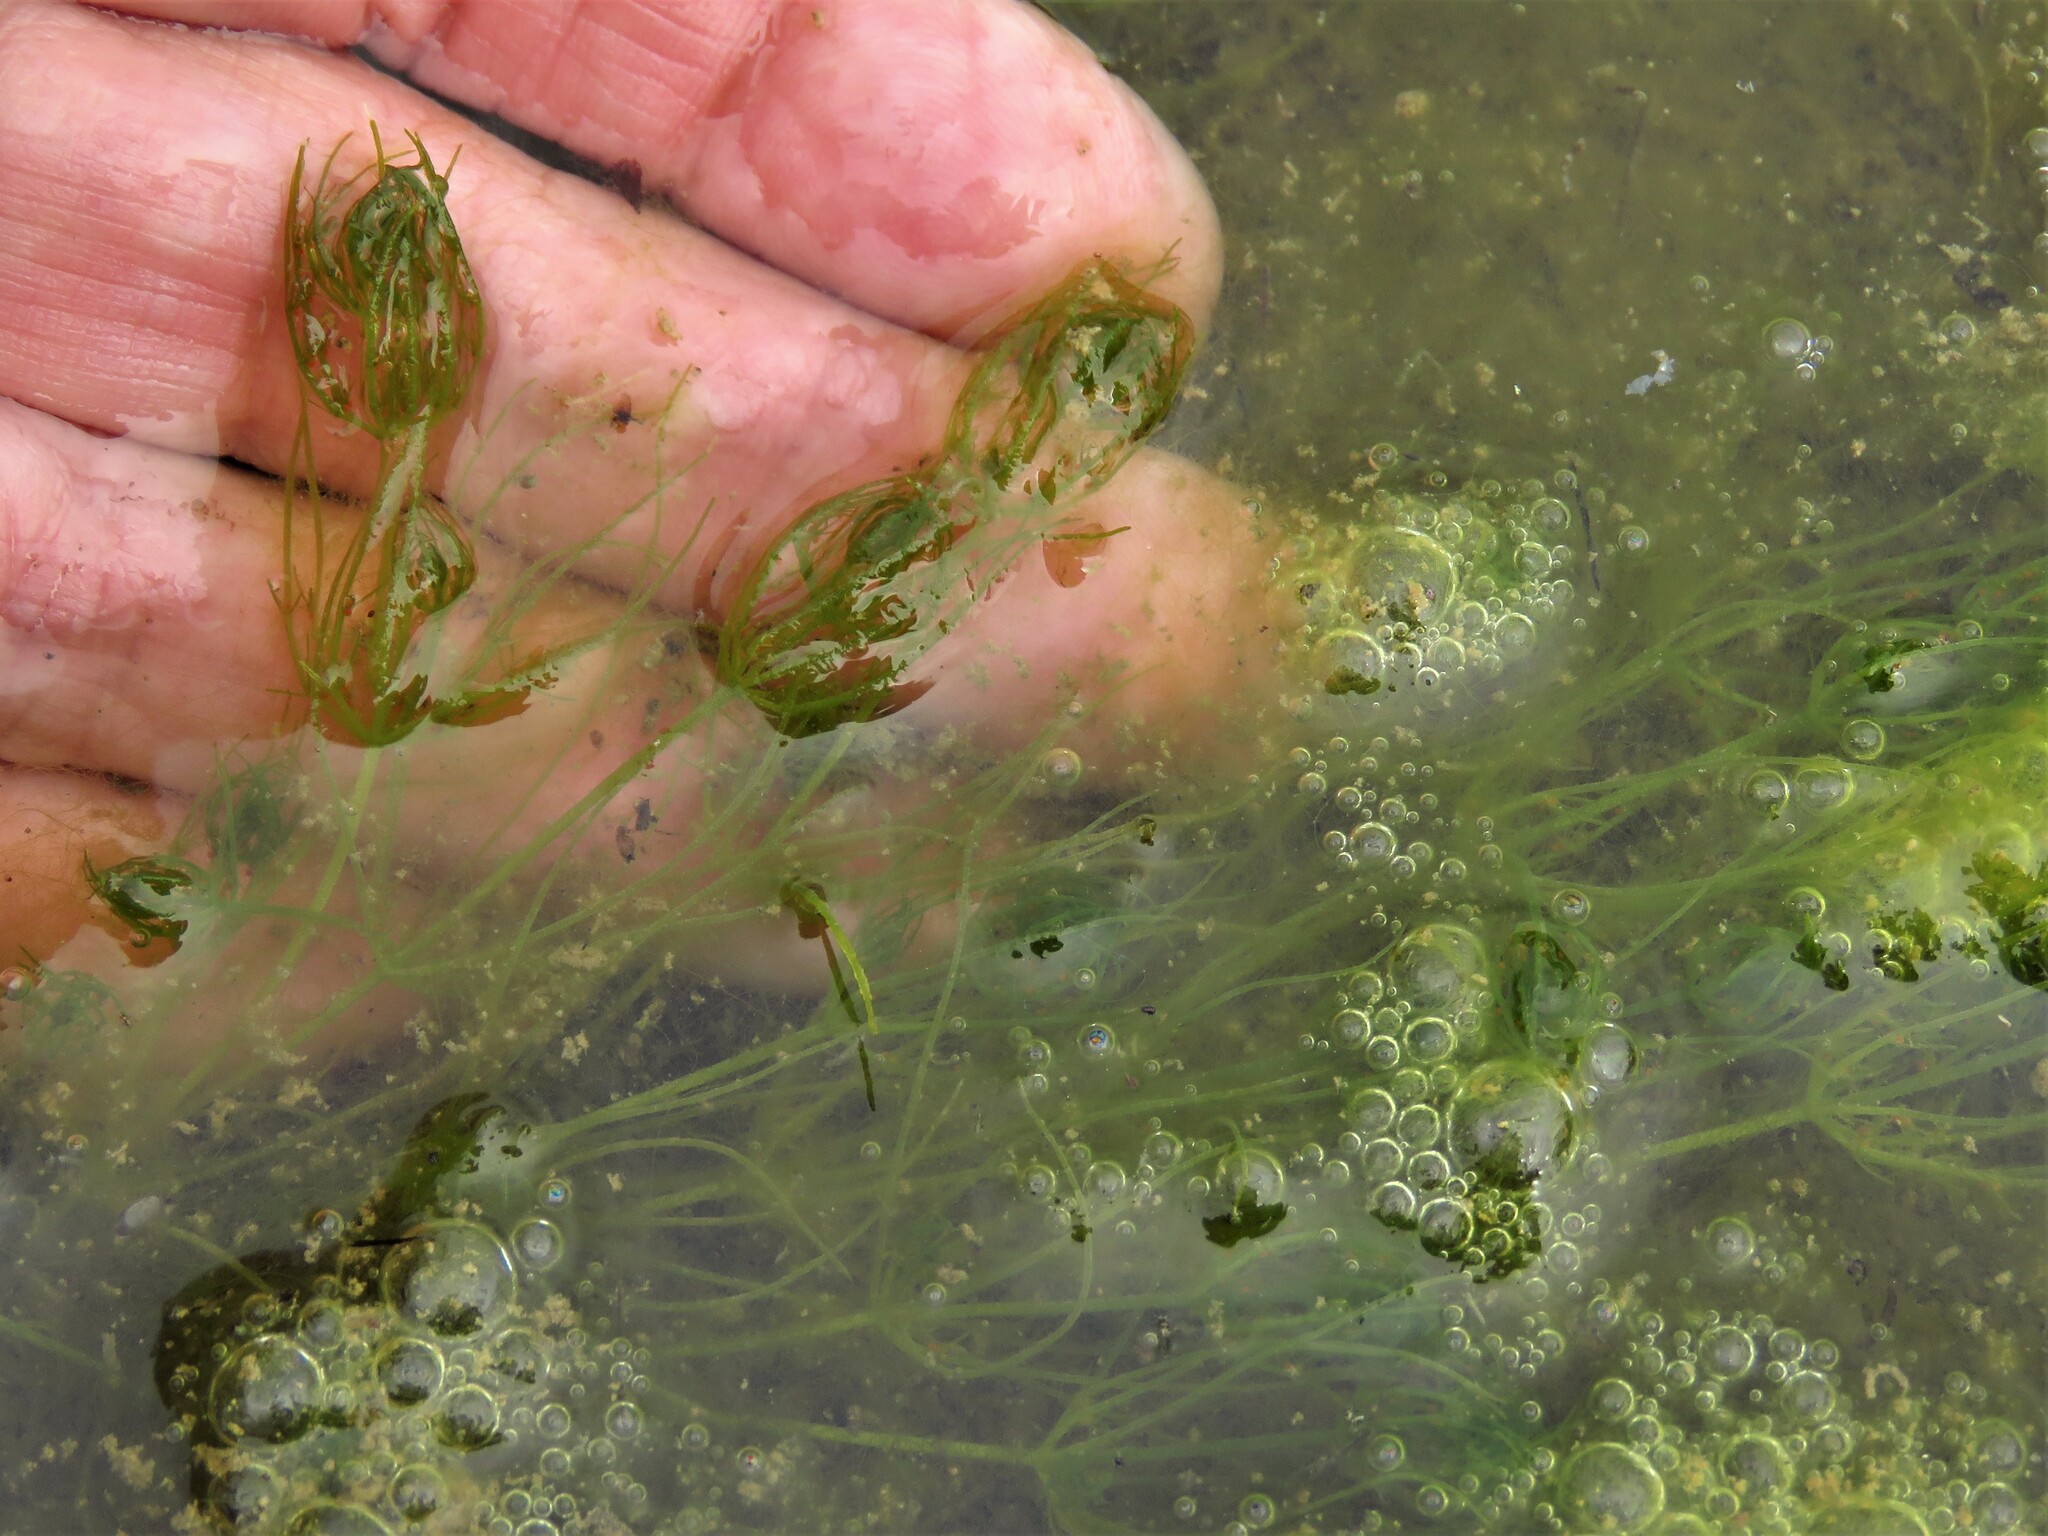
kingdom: Plantae
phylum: Charophyta
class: Charophyceae
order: Charales
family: Characeae
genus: Chara
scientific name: Chara
